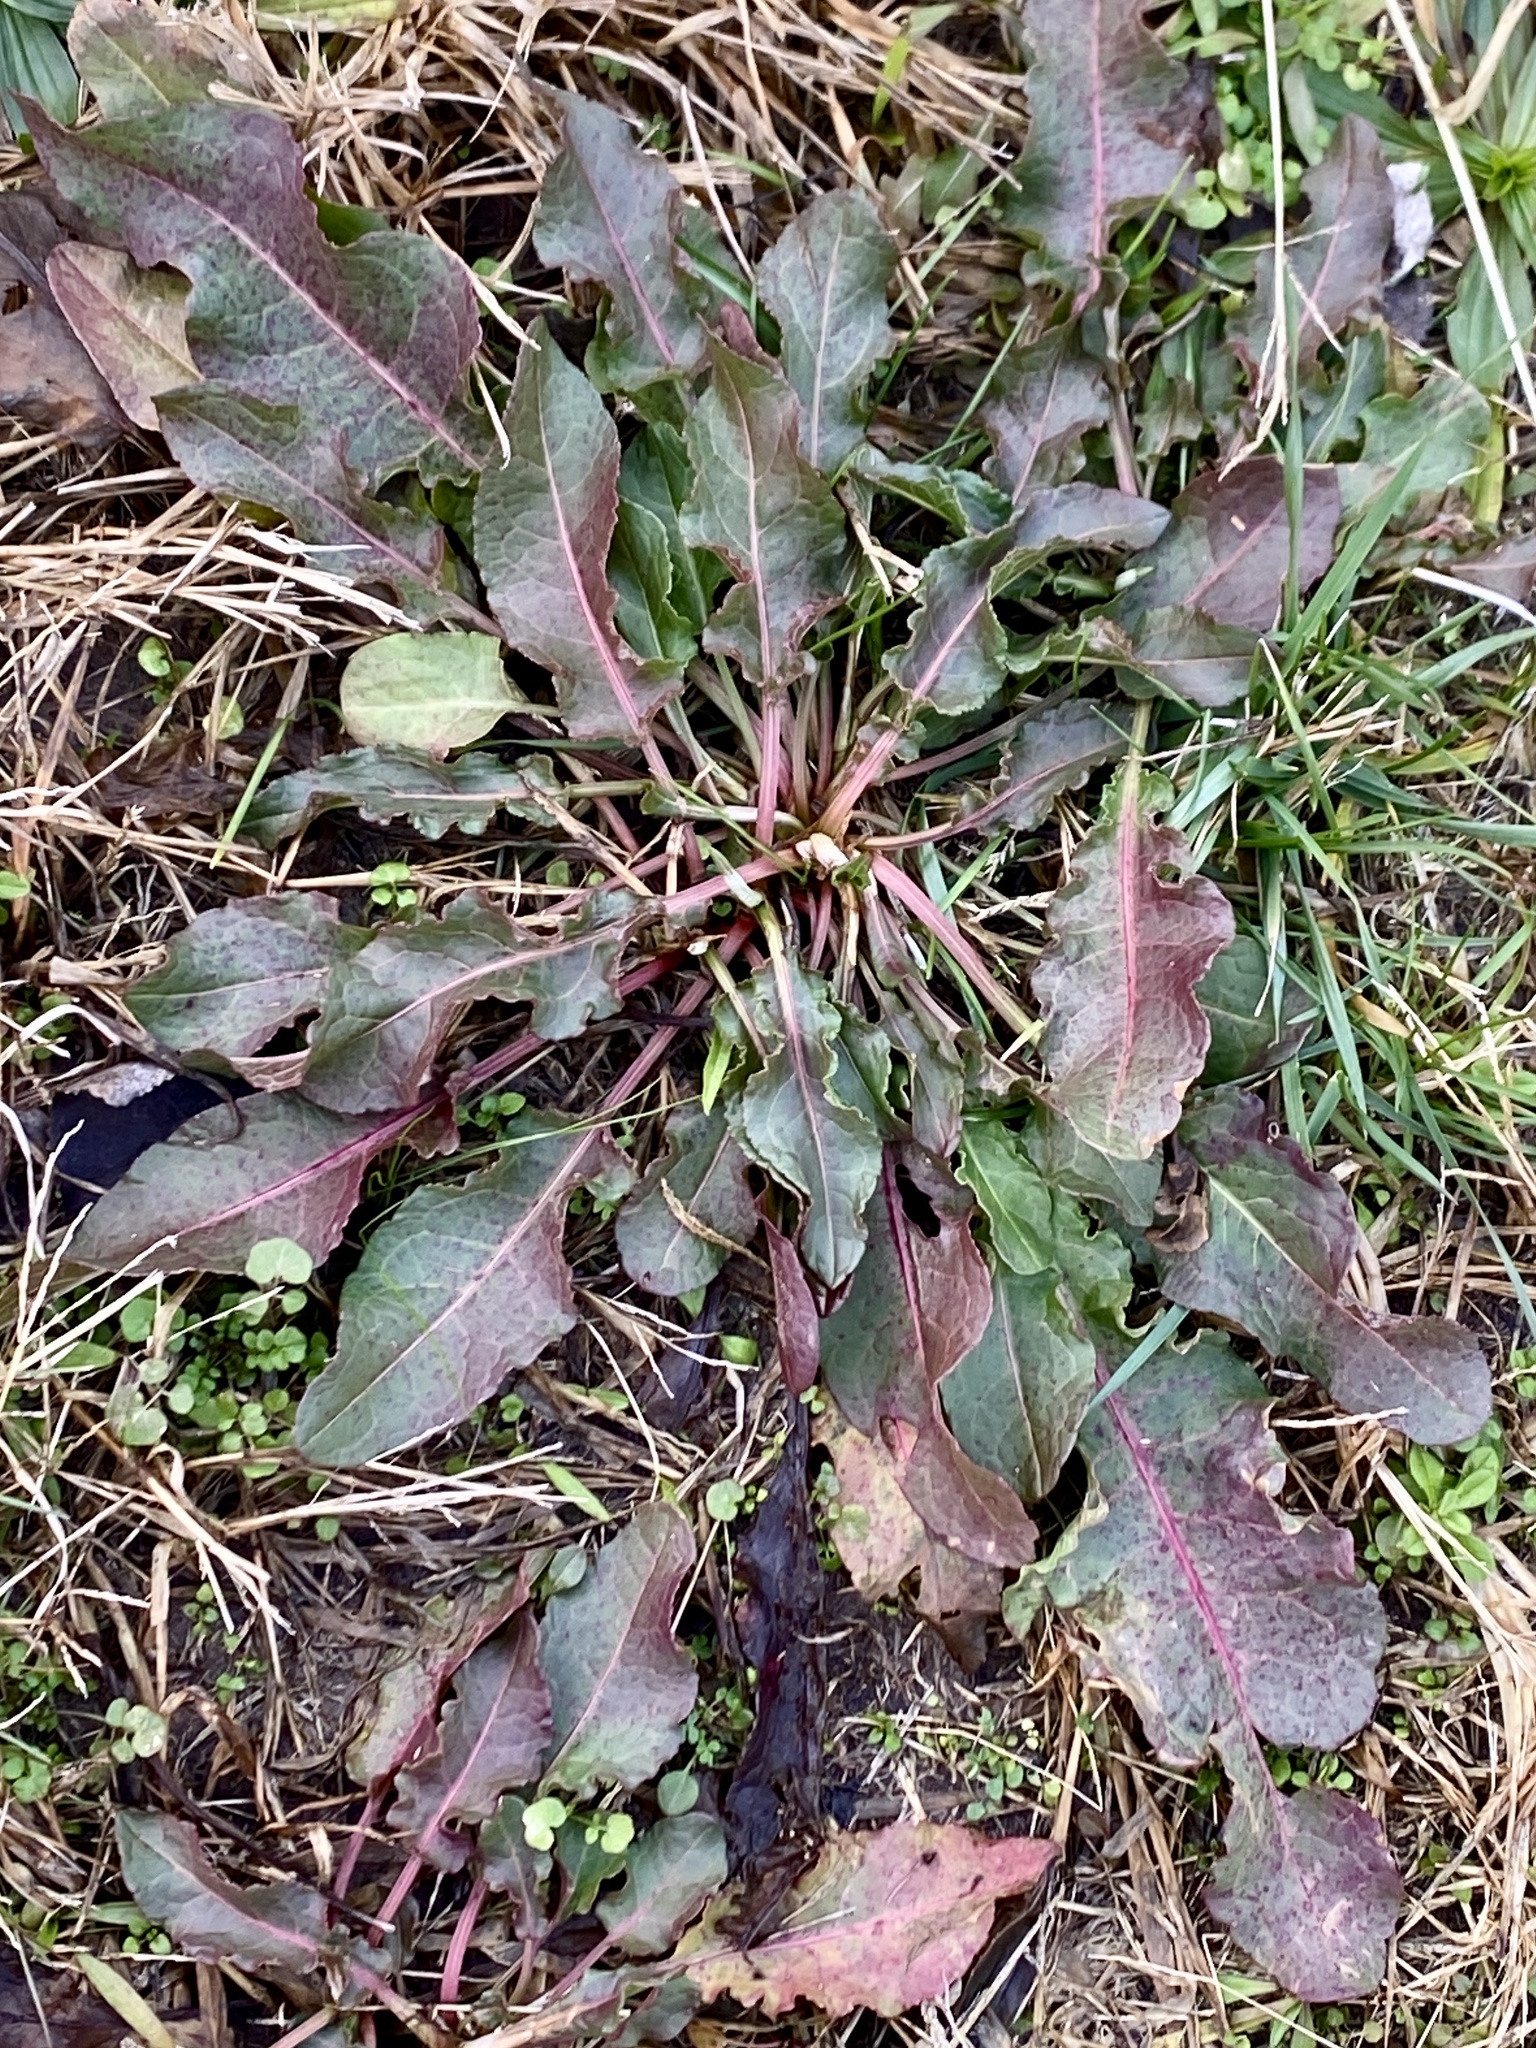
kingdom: Plantae
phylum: Tracheophyta
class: Magnoliopsida
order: Caryophyllales
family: Polygonaceae
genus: Rumex
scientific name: Rumex crispus
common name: Curled dock
